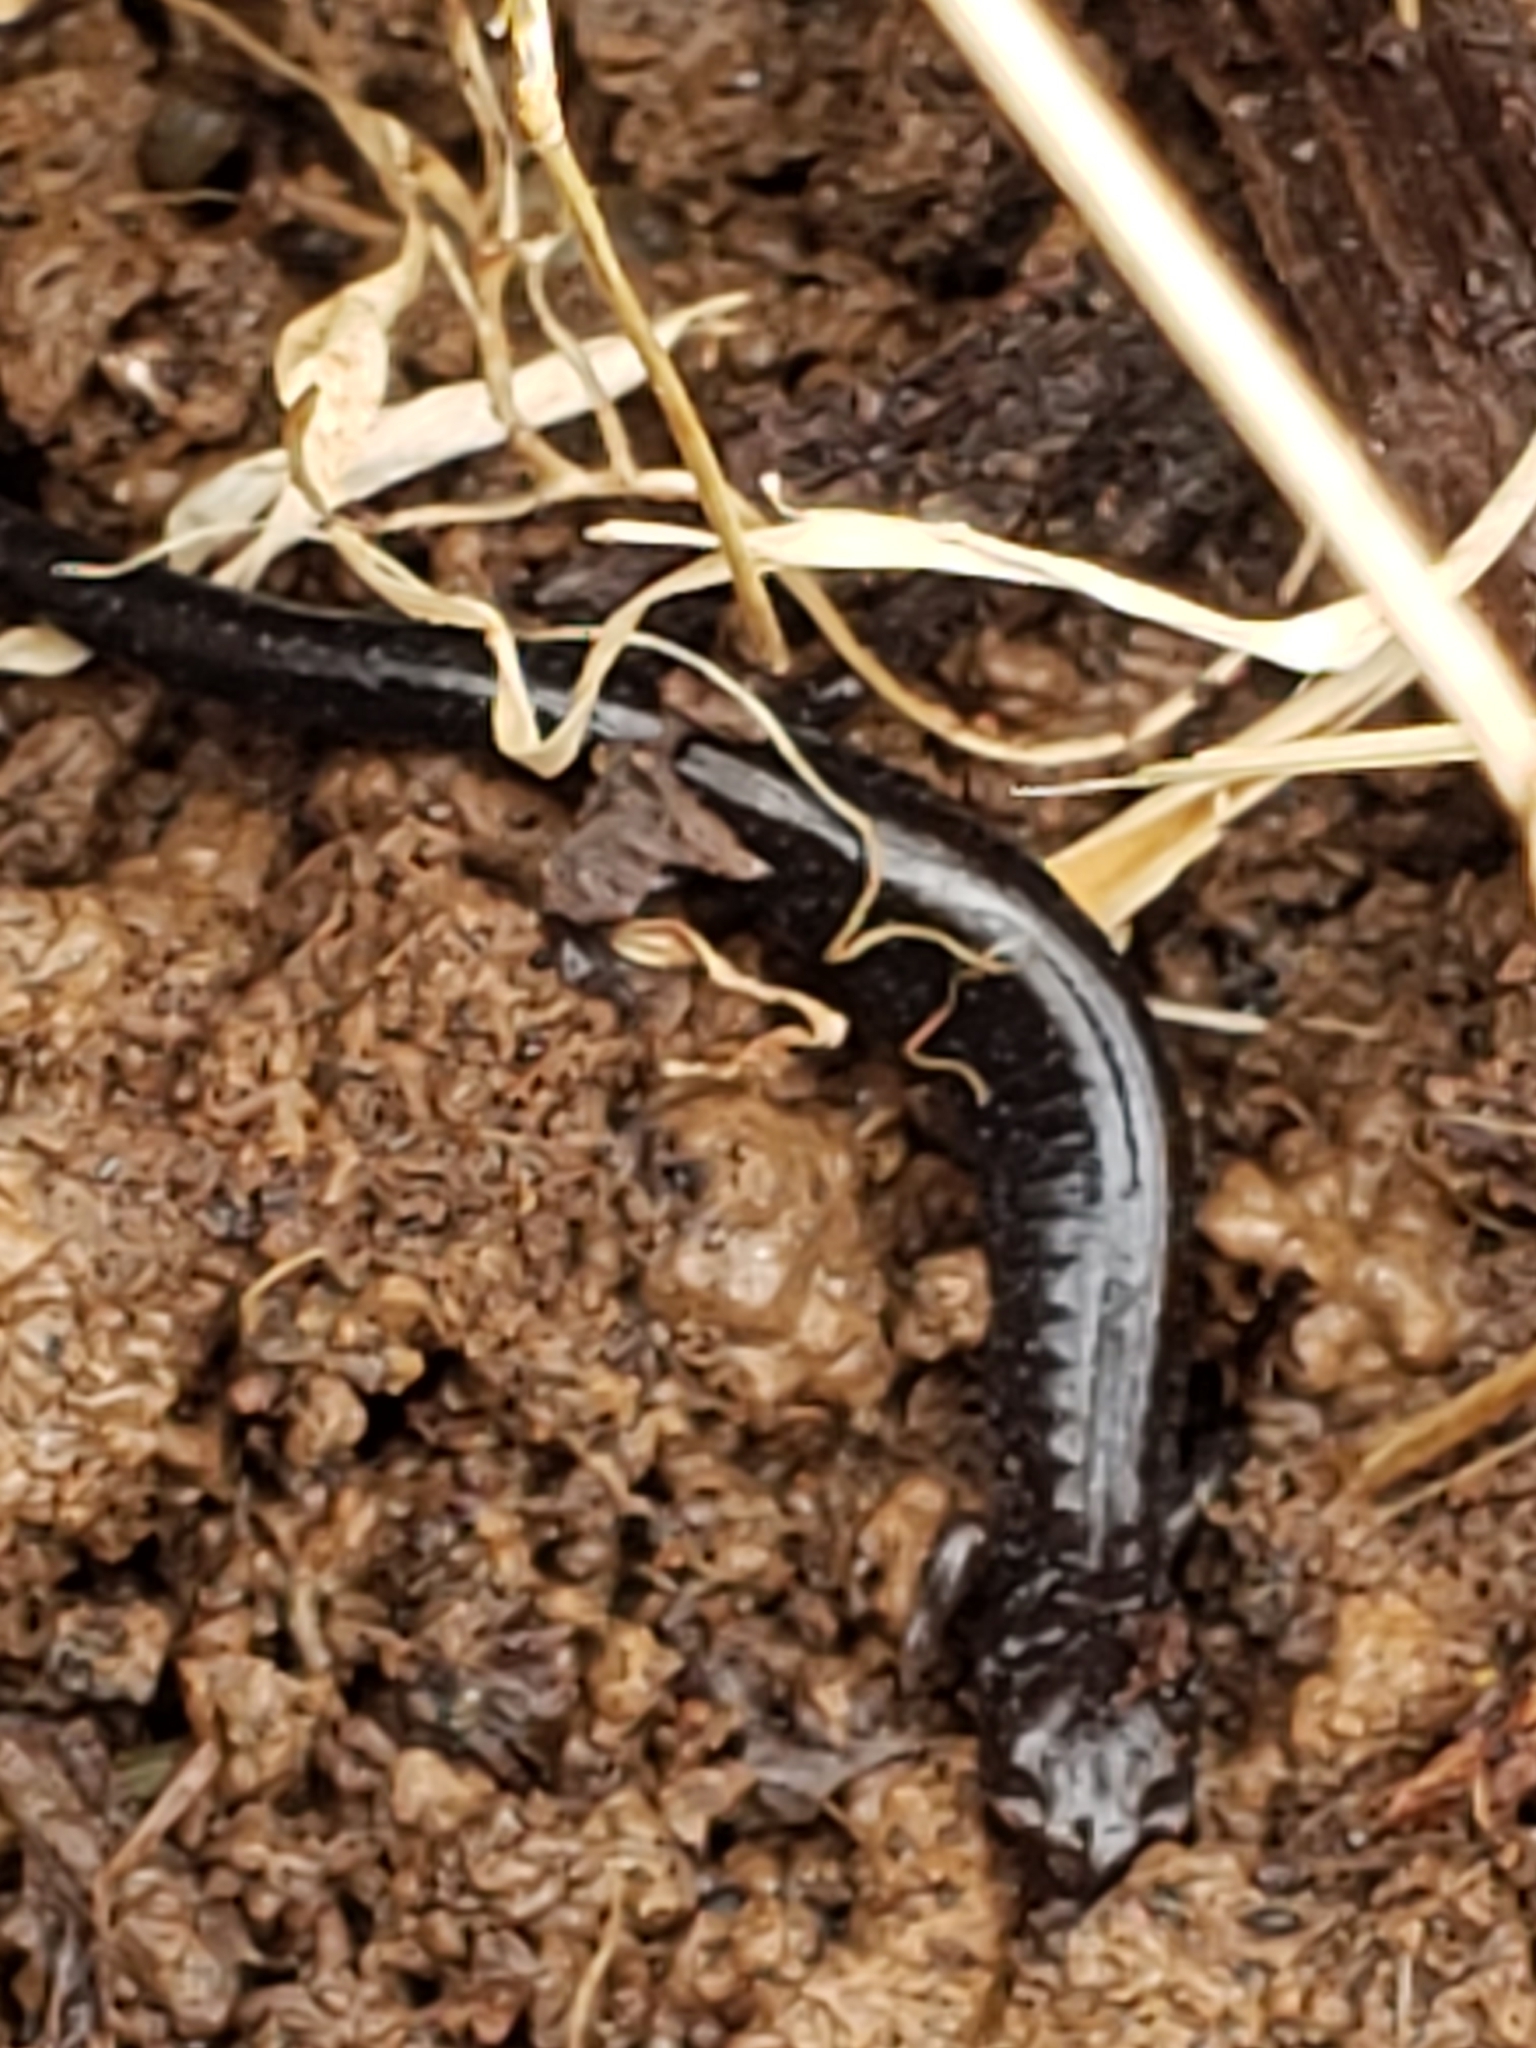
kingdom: Animalia
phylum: Chordata
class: Amphibia
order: Caudata
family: Plethodontidae
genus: Plethodon
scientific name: Plethodon cinereus
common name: Redback salamander
